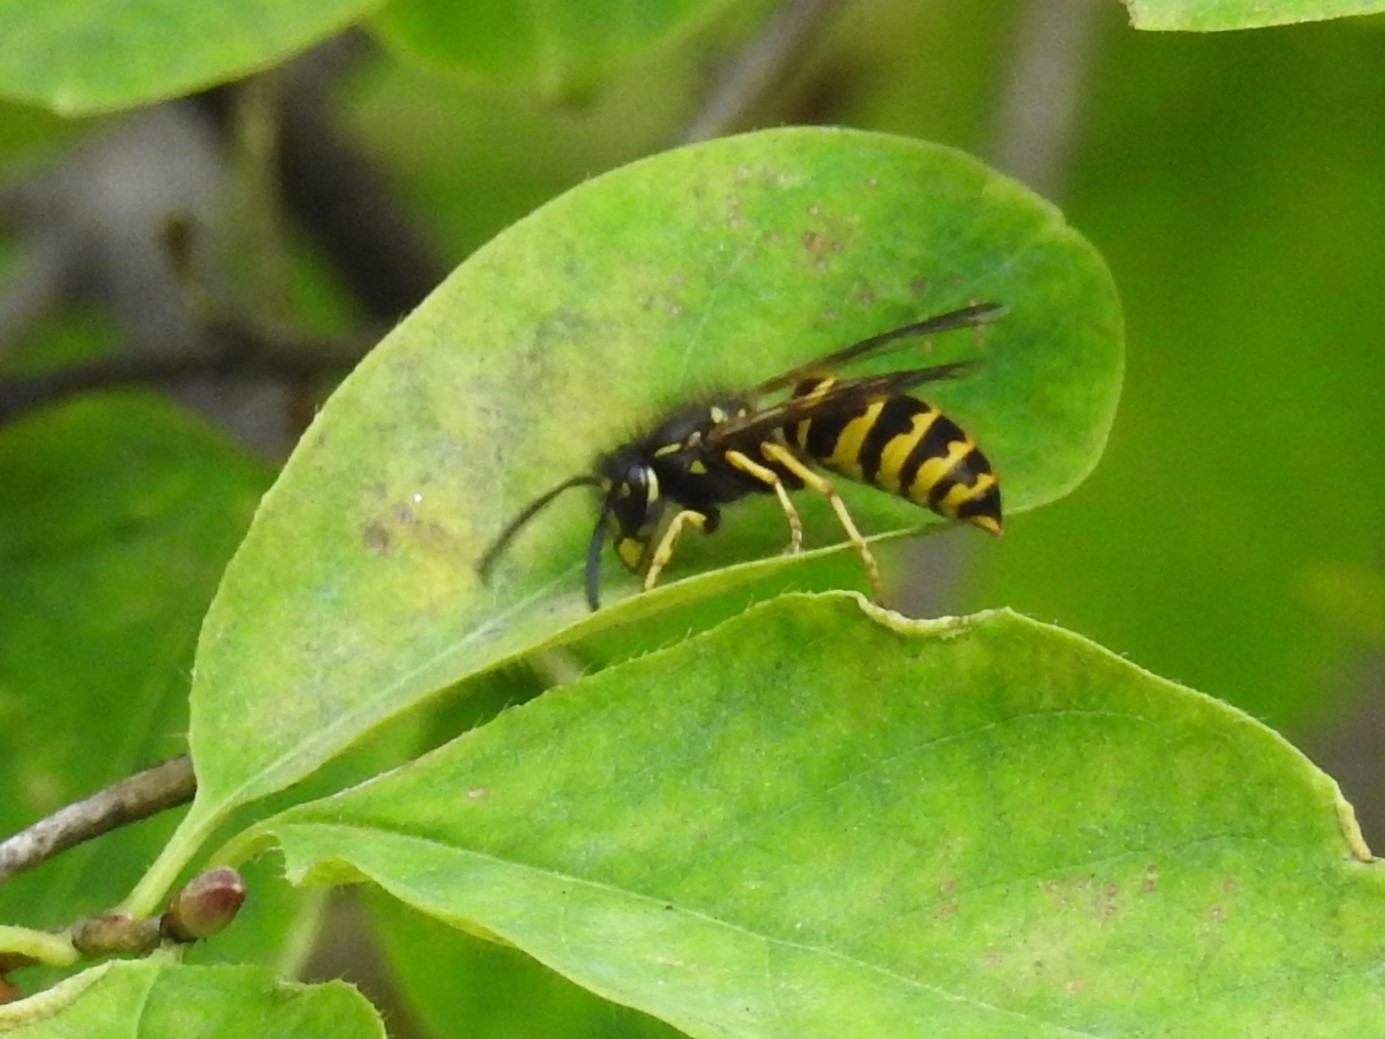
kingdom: Animalia
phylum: Arthropoda
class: Insecta
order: Hymenoptera
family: Vespidae
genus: Vespula
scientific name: Vespula alascensis
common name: Alaska yellowjacket
